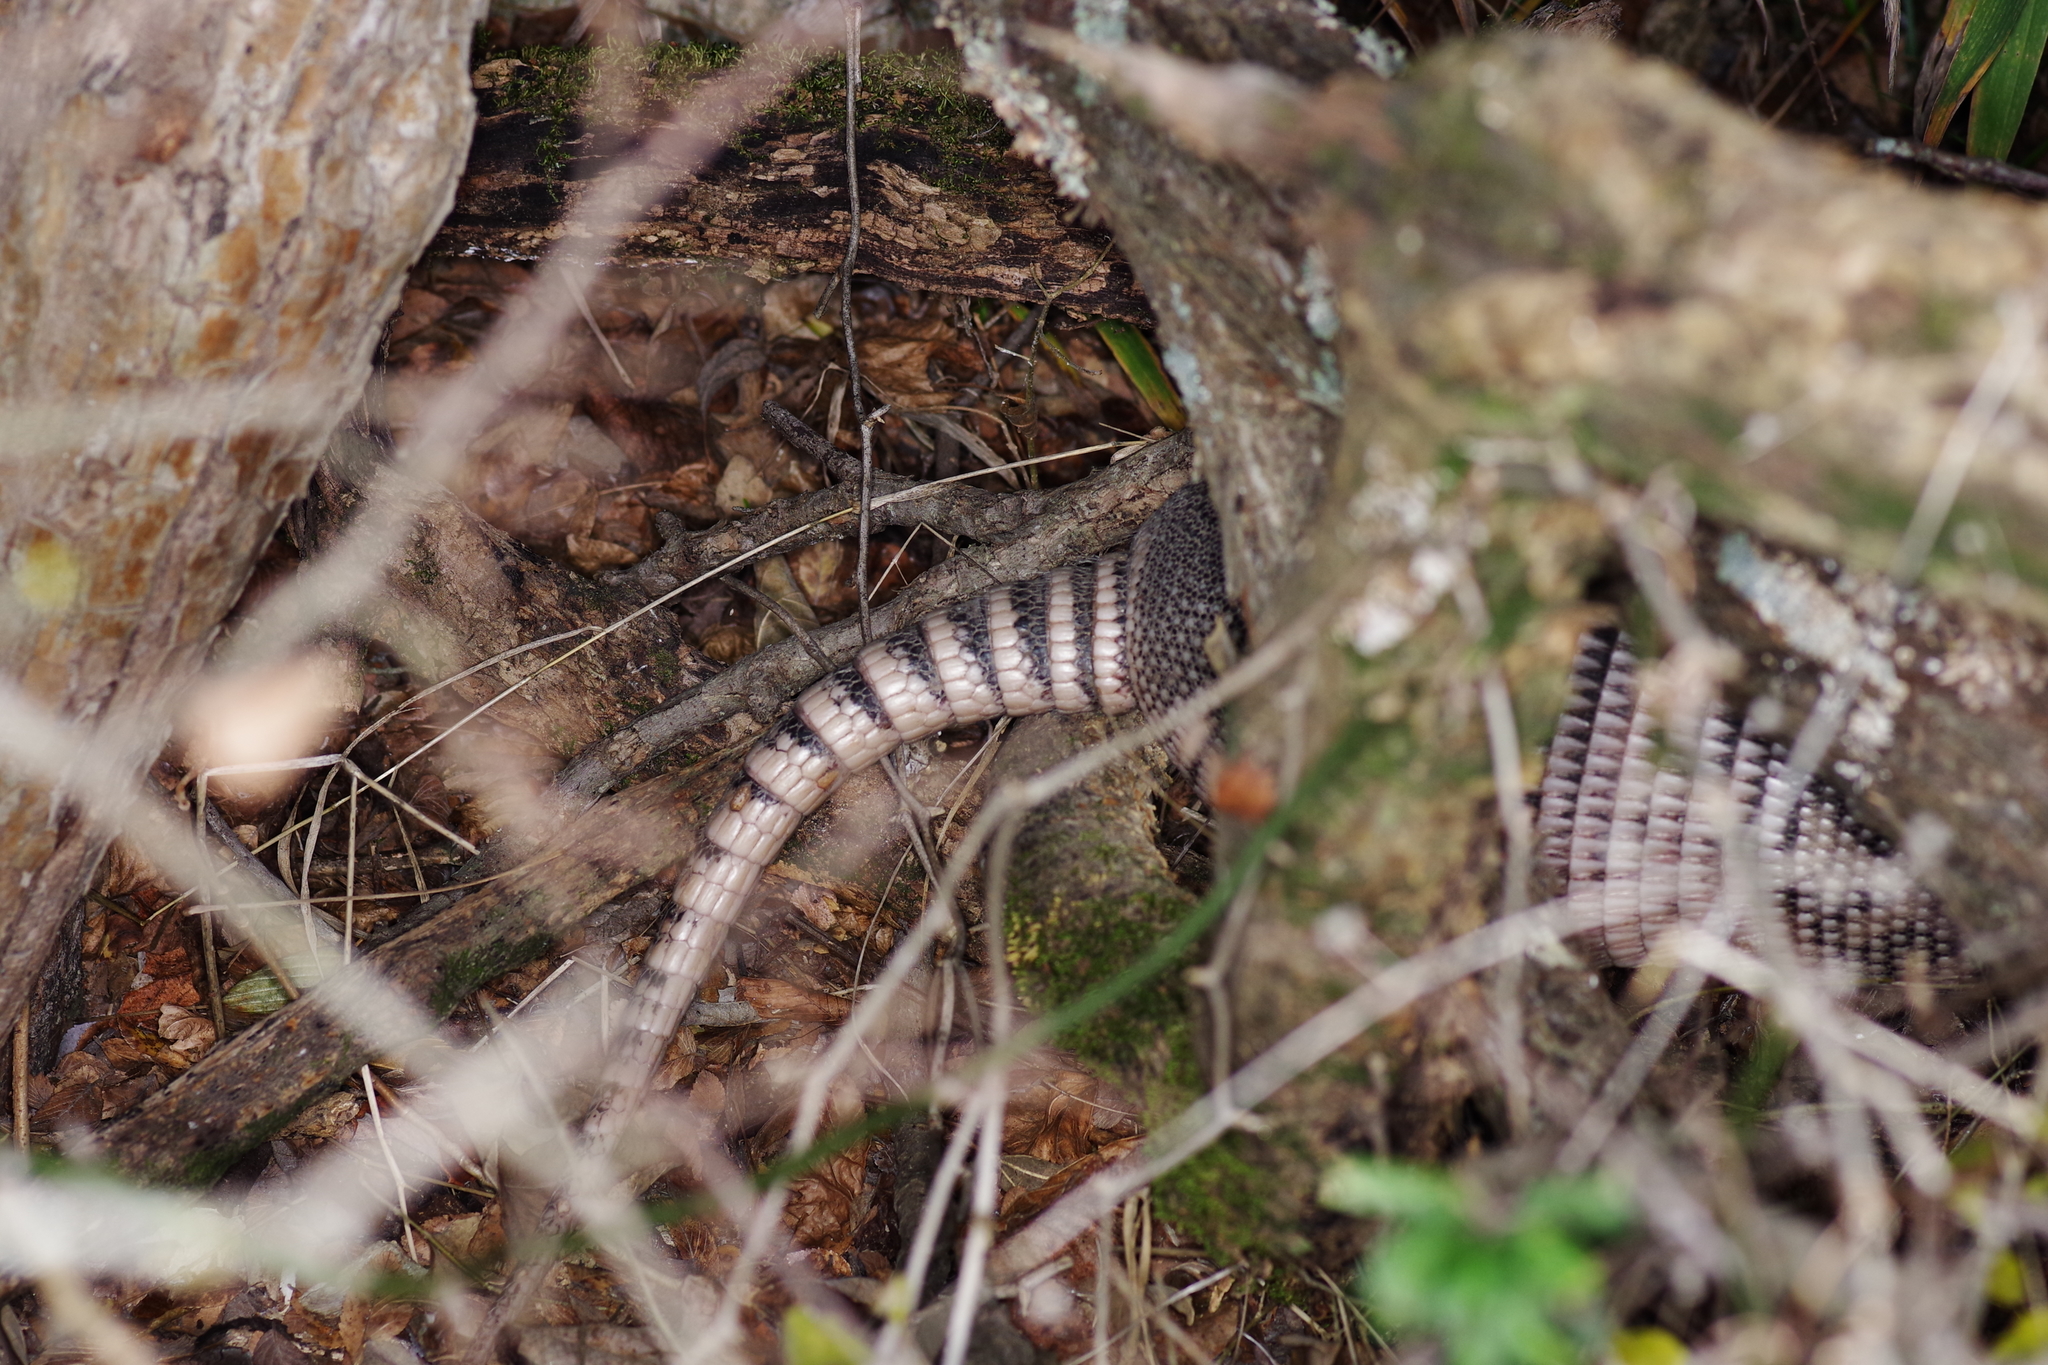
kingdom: Animalia
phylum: Chordata
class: Mammalia
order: Cingulata
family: Dasypodidae
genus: Dasypus
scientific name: Dasypus novemcinctus
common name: Nine-banded armadillo
